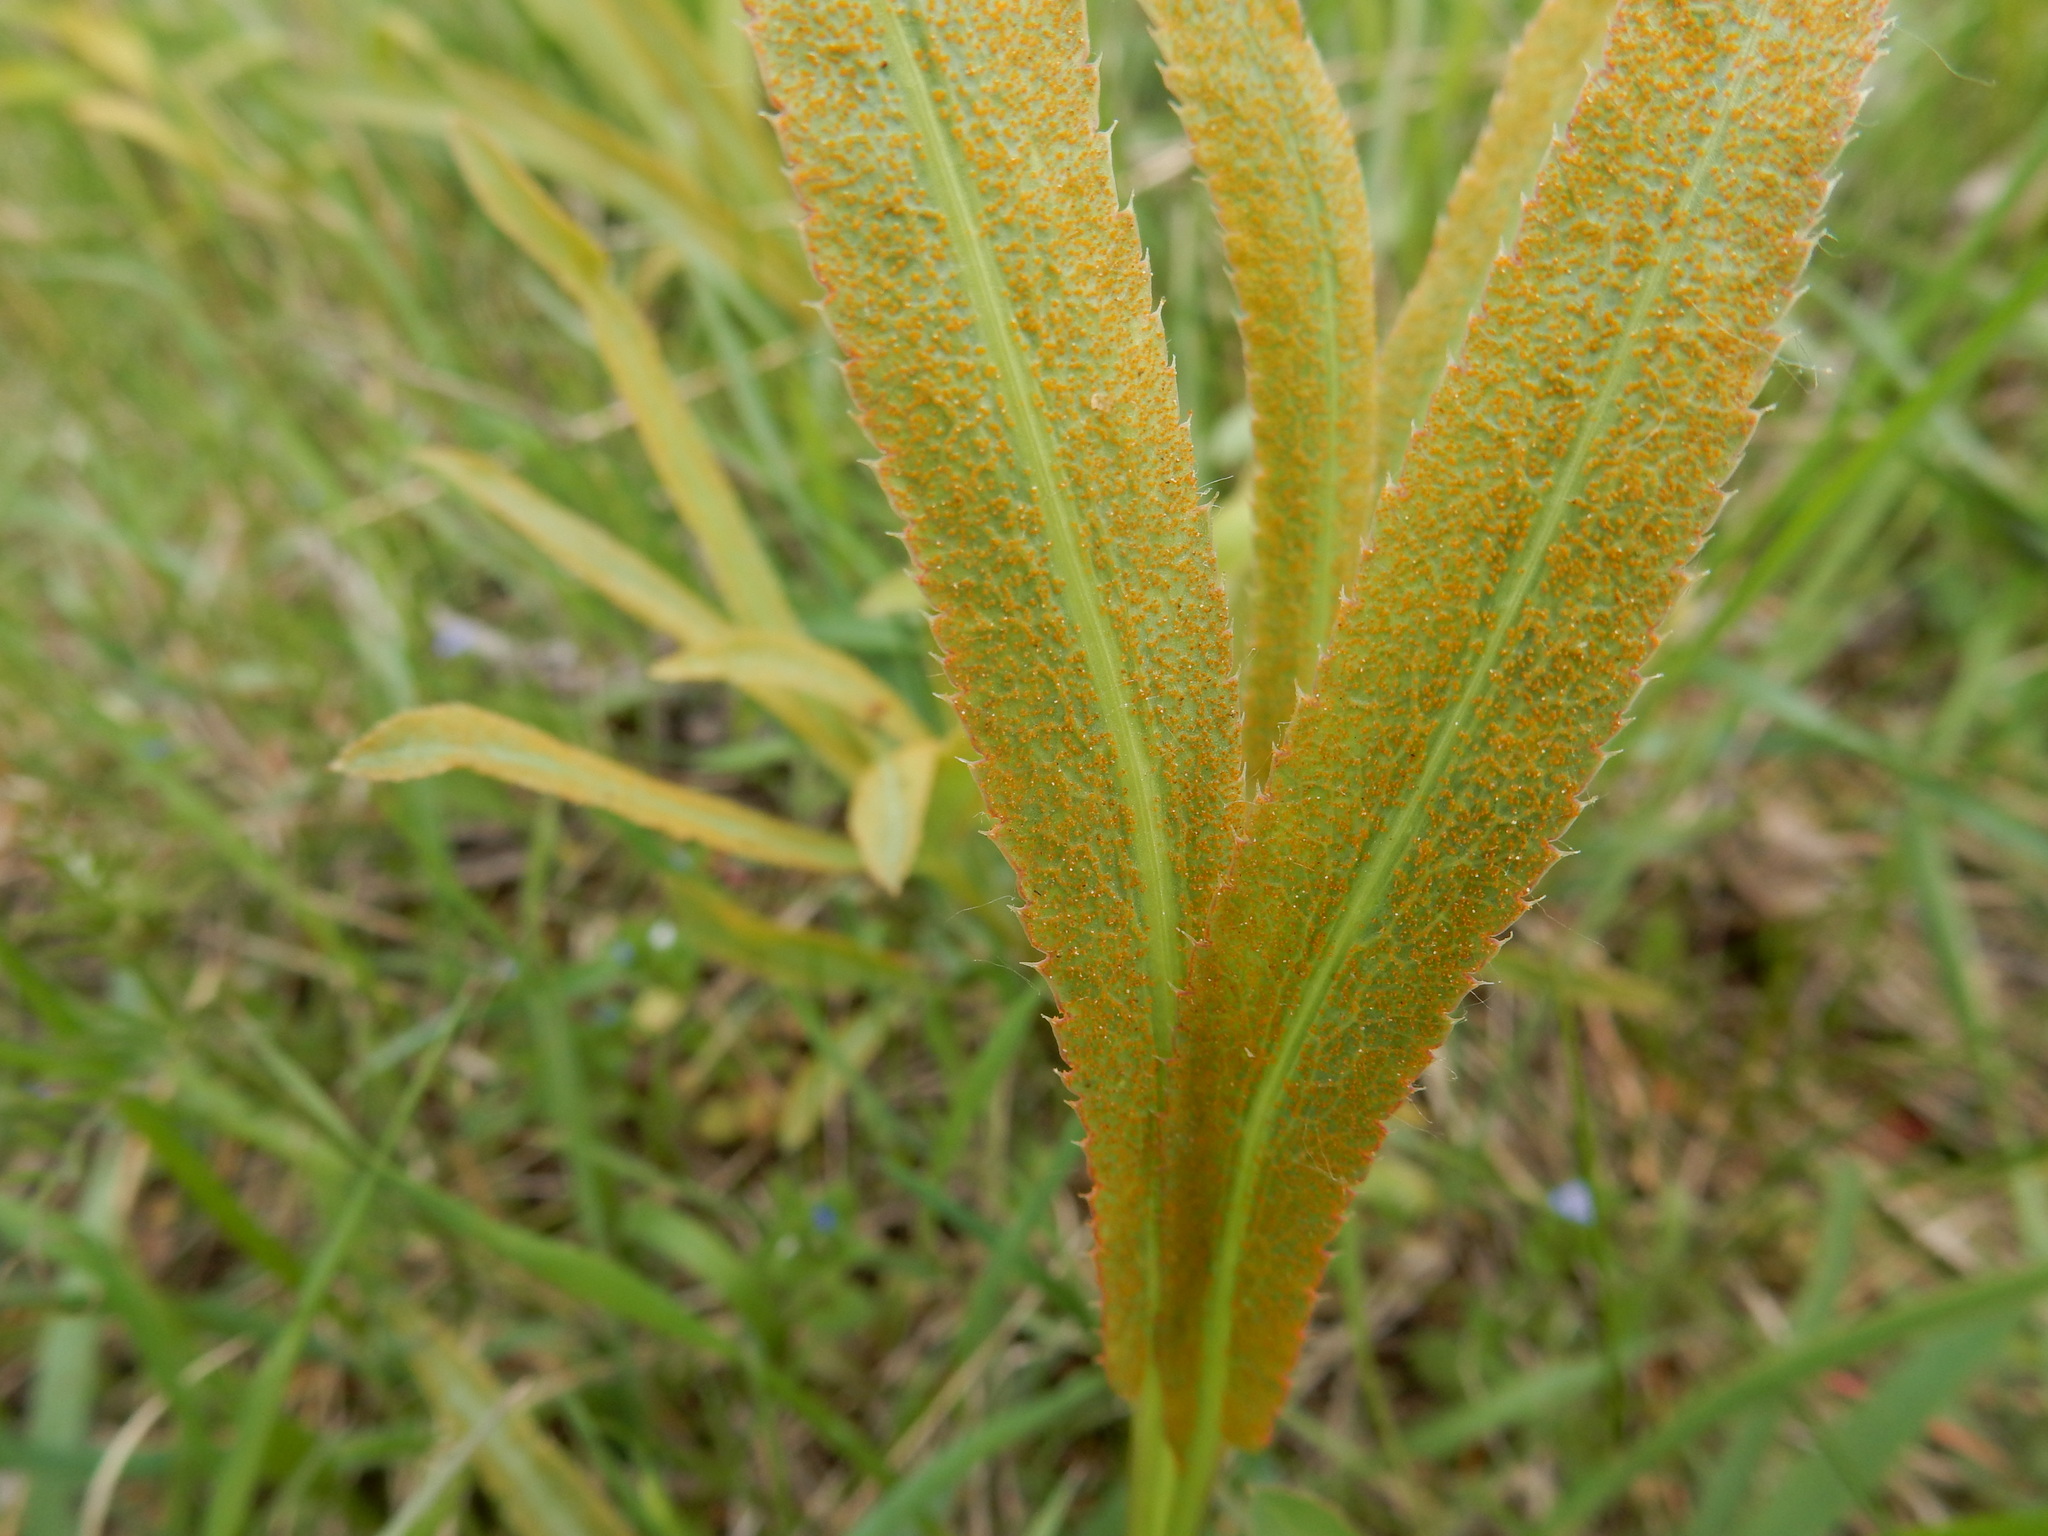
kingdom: Fungi
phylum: Basidiomycota
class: Pucciniomycetes
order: Pucciniales
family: Pucciniaceae
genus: Puccinia
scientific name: Puccinia sii-falcariae
